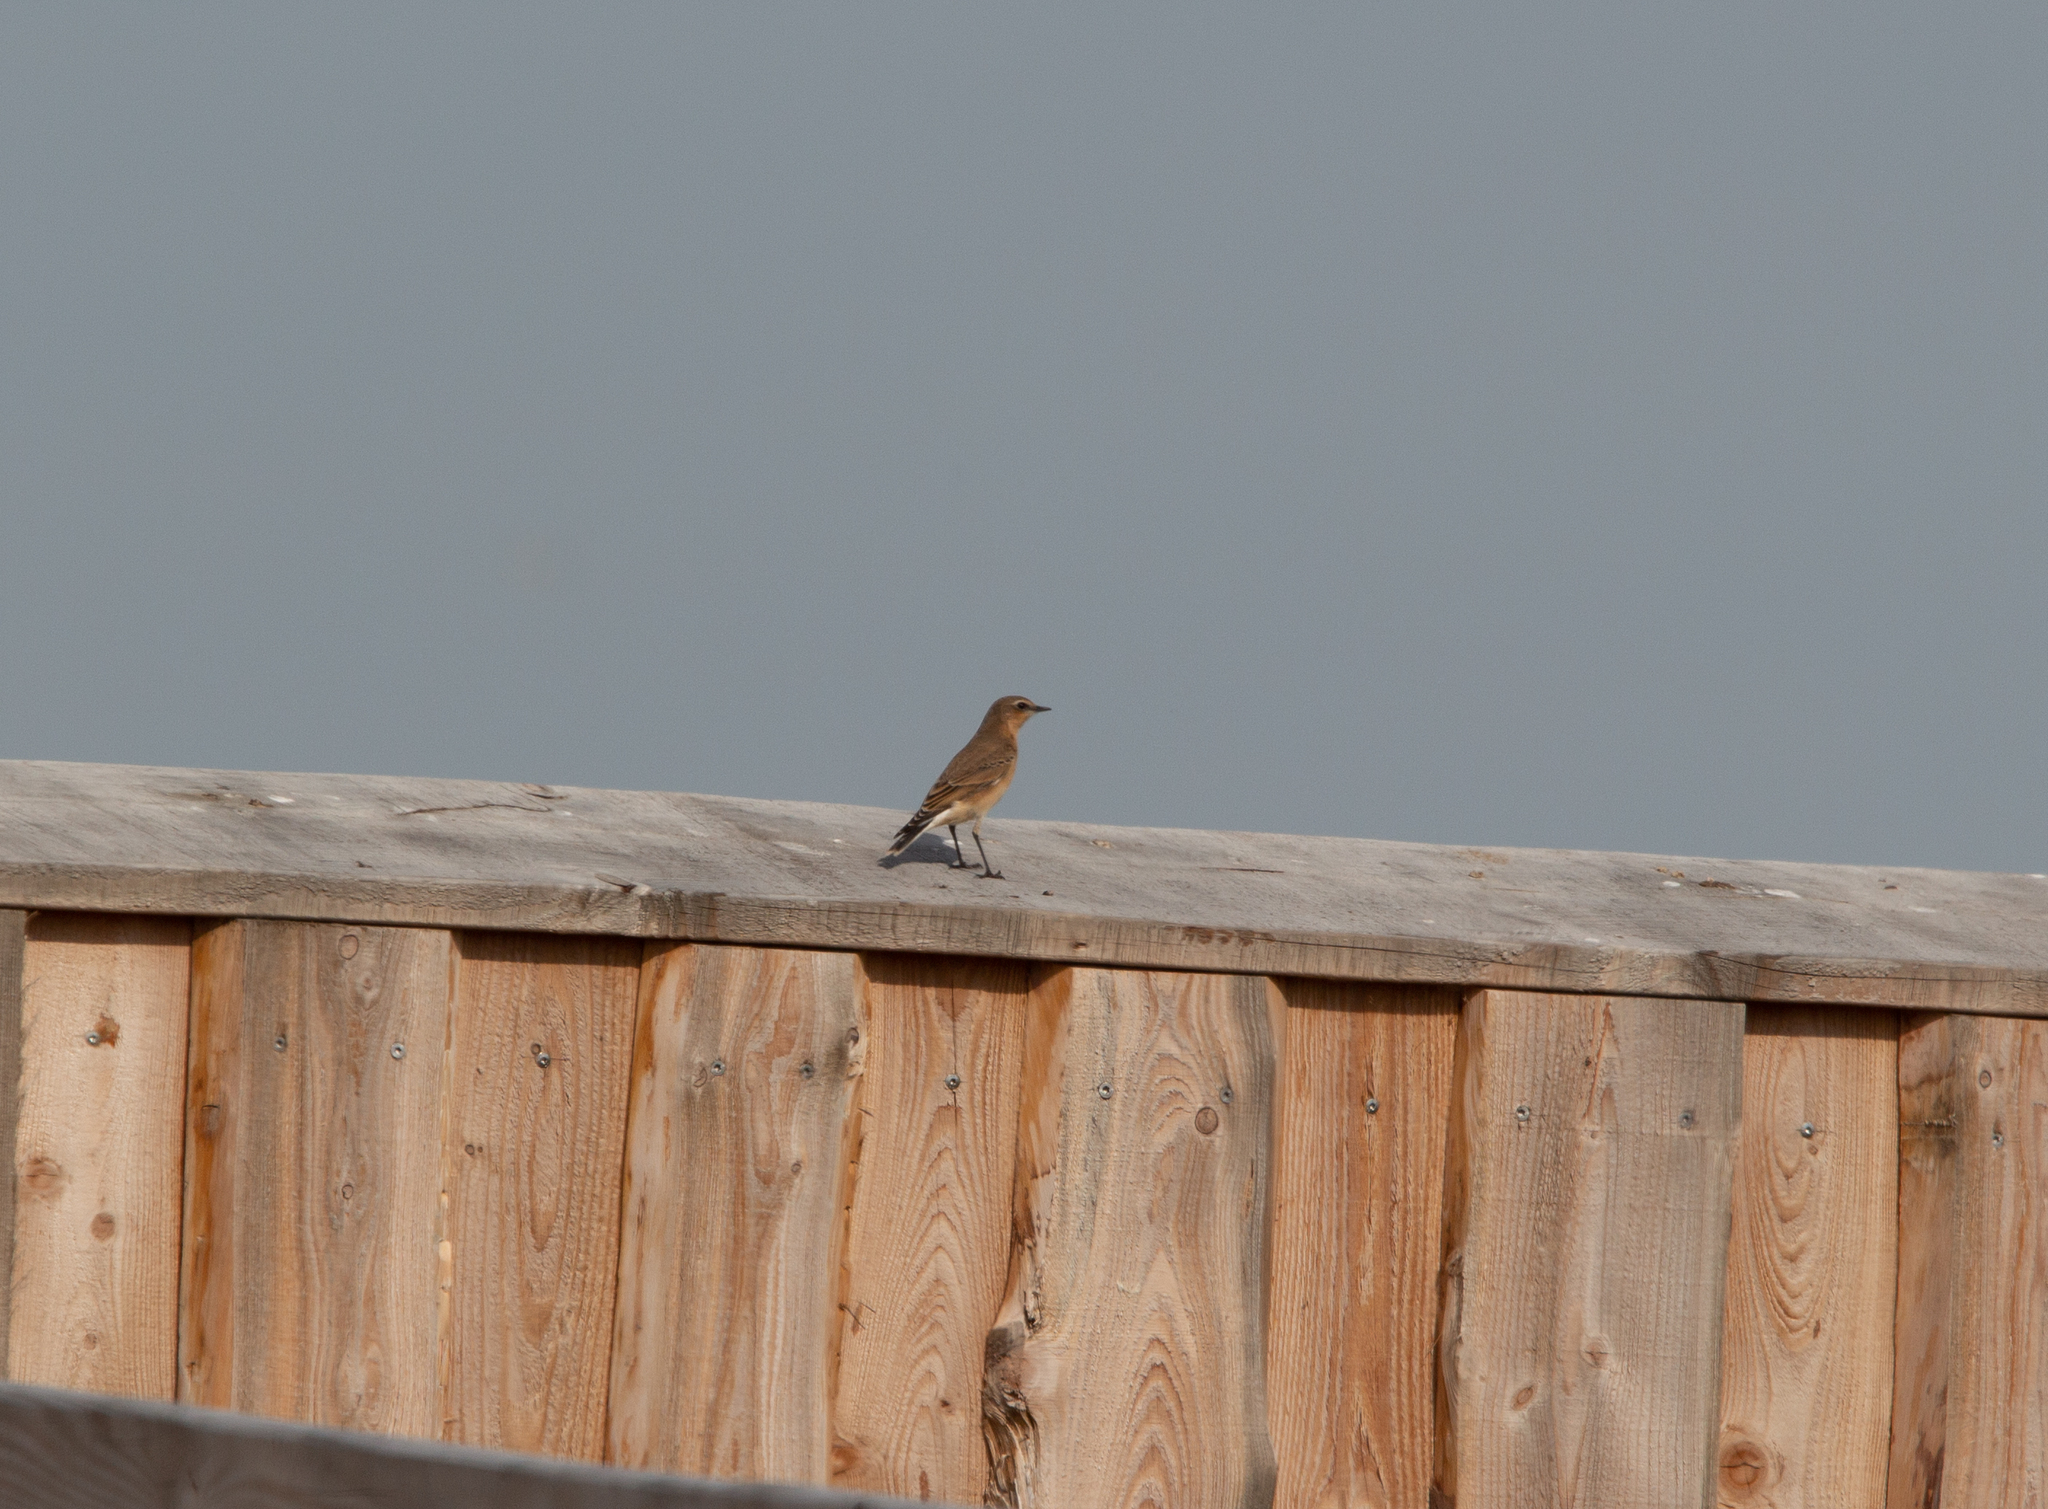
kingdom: Animalia
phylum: Chordata
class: Aves
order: Passeriformes
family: Muscicapidae
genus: Oenanthe
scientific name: Oenanthe oenanthe
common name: Northern wheatear
